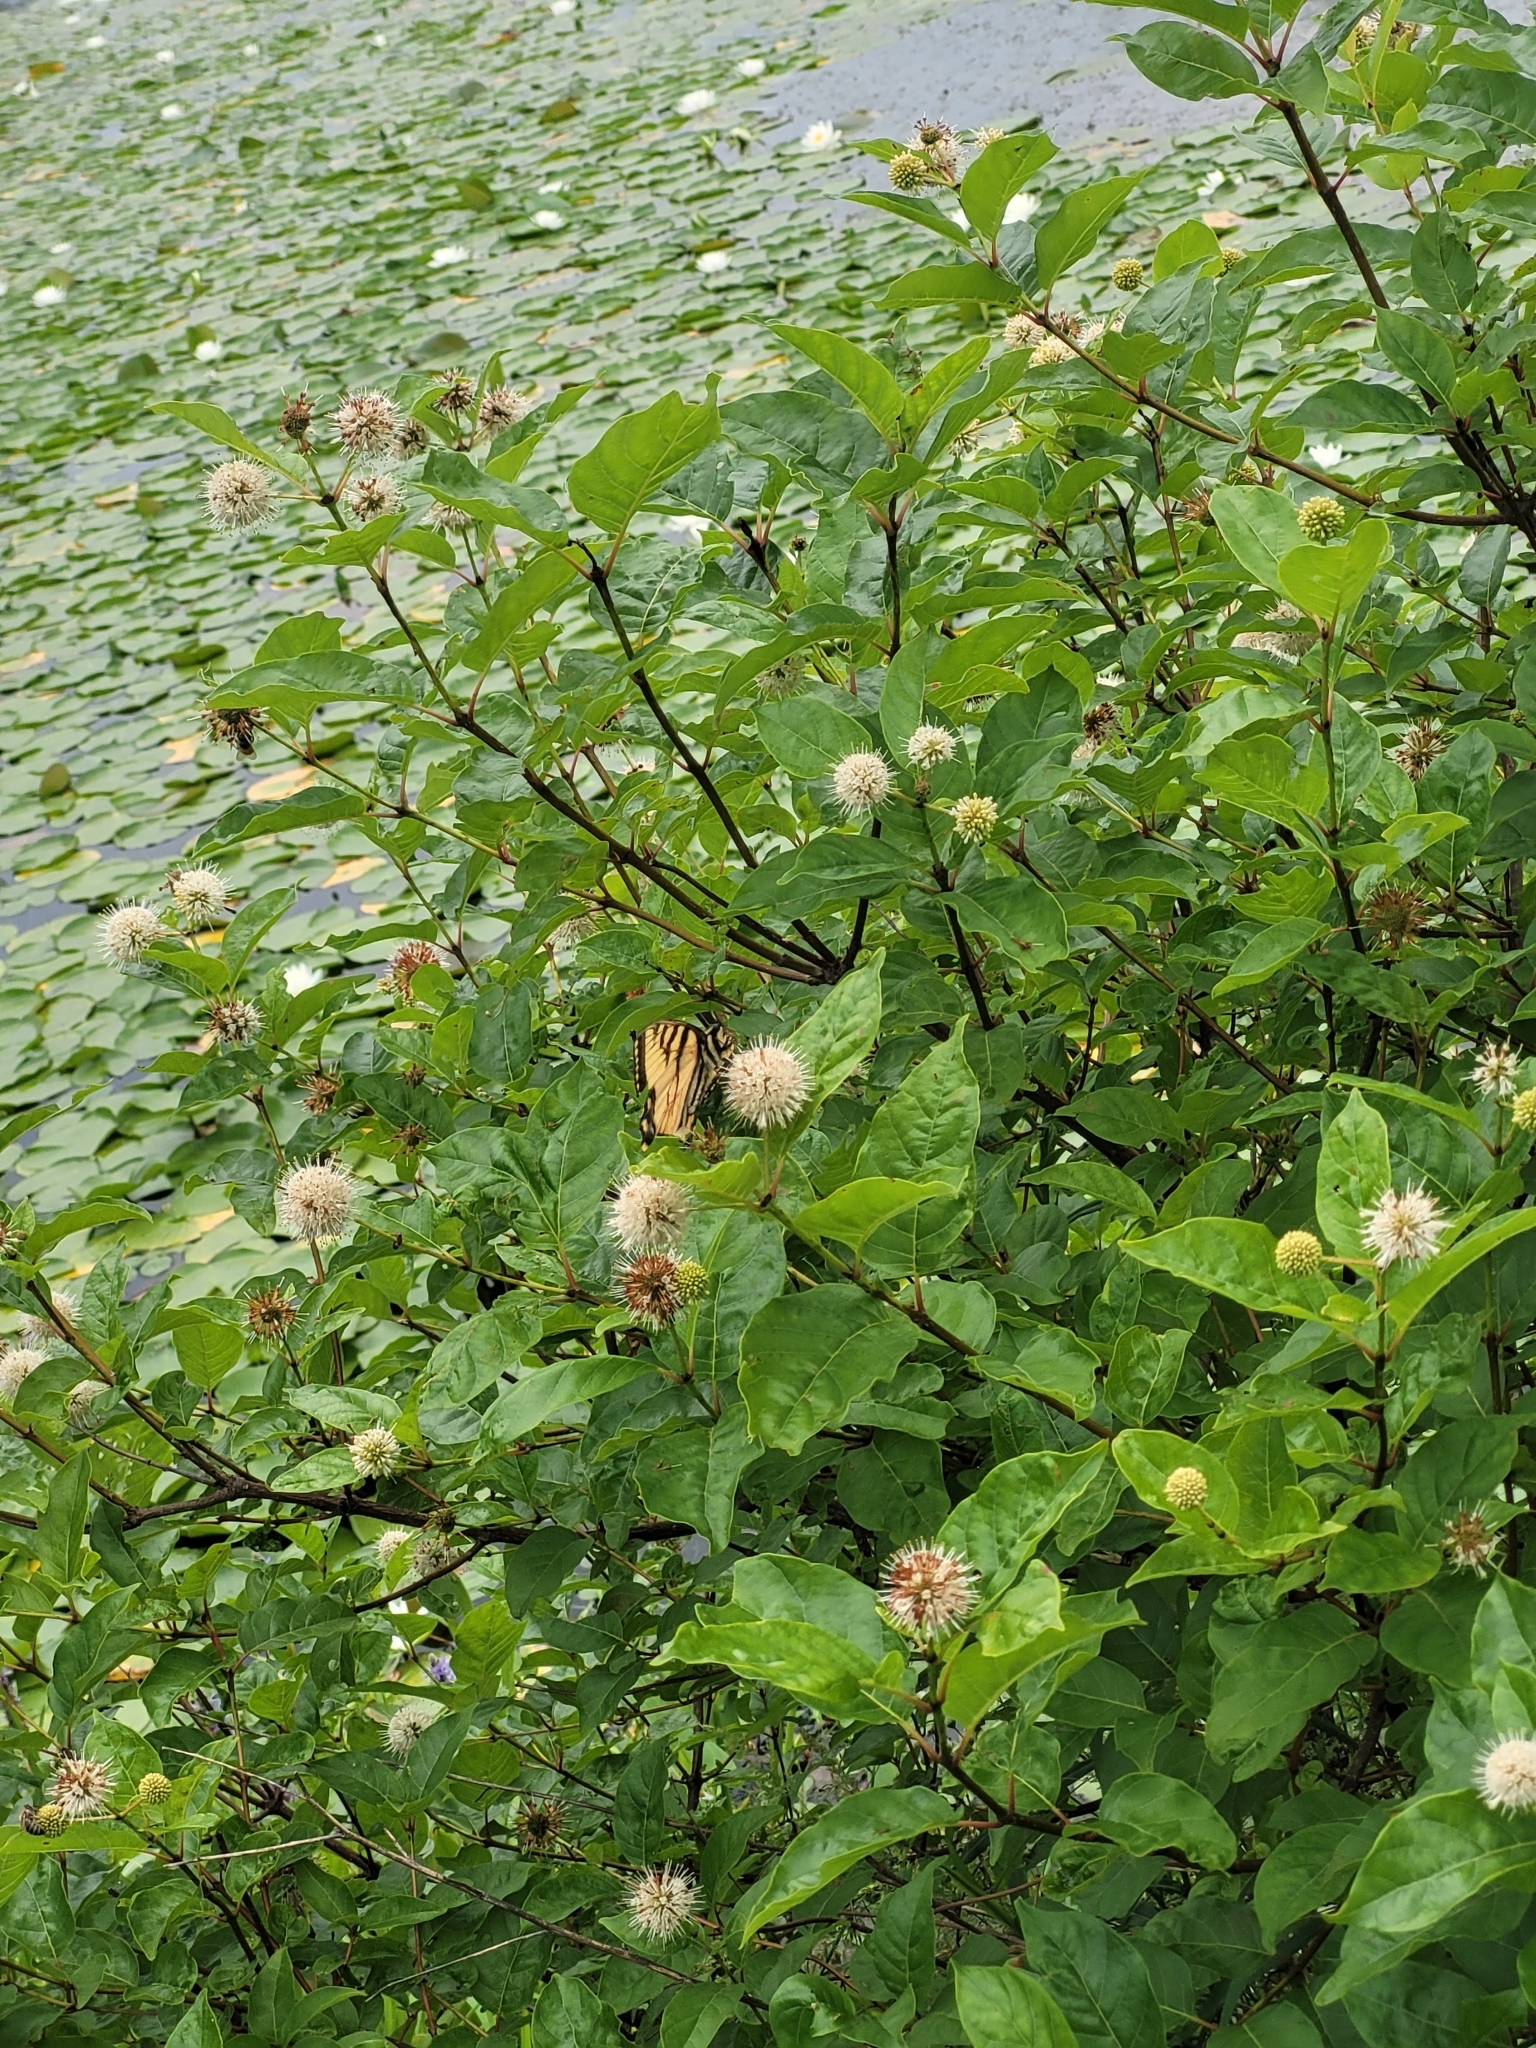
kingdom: Animalia
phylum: Arthropoda
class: Insecta
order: Lepidoptera
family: Papilionidae
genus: Papilio
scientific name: Papilio glaucus
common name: Tiger swallowtail
